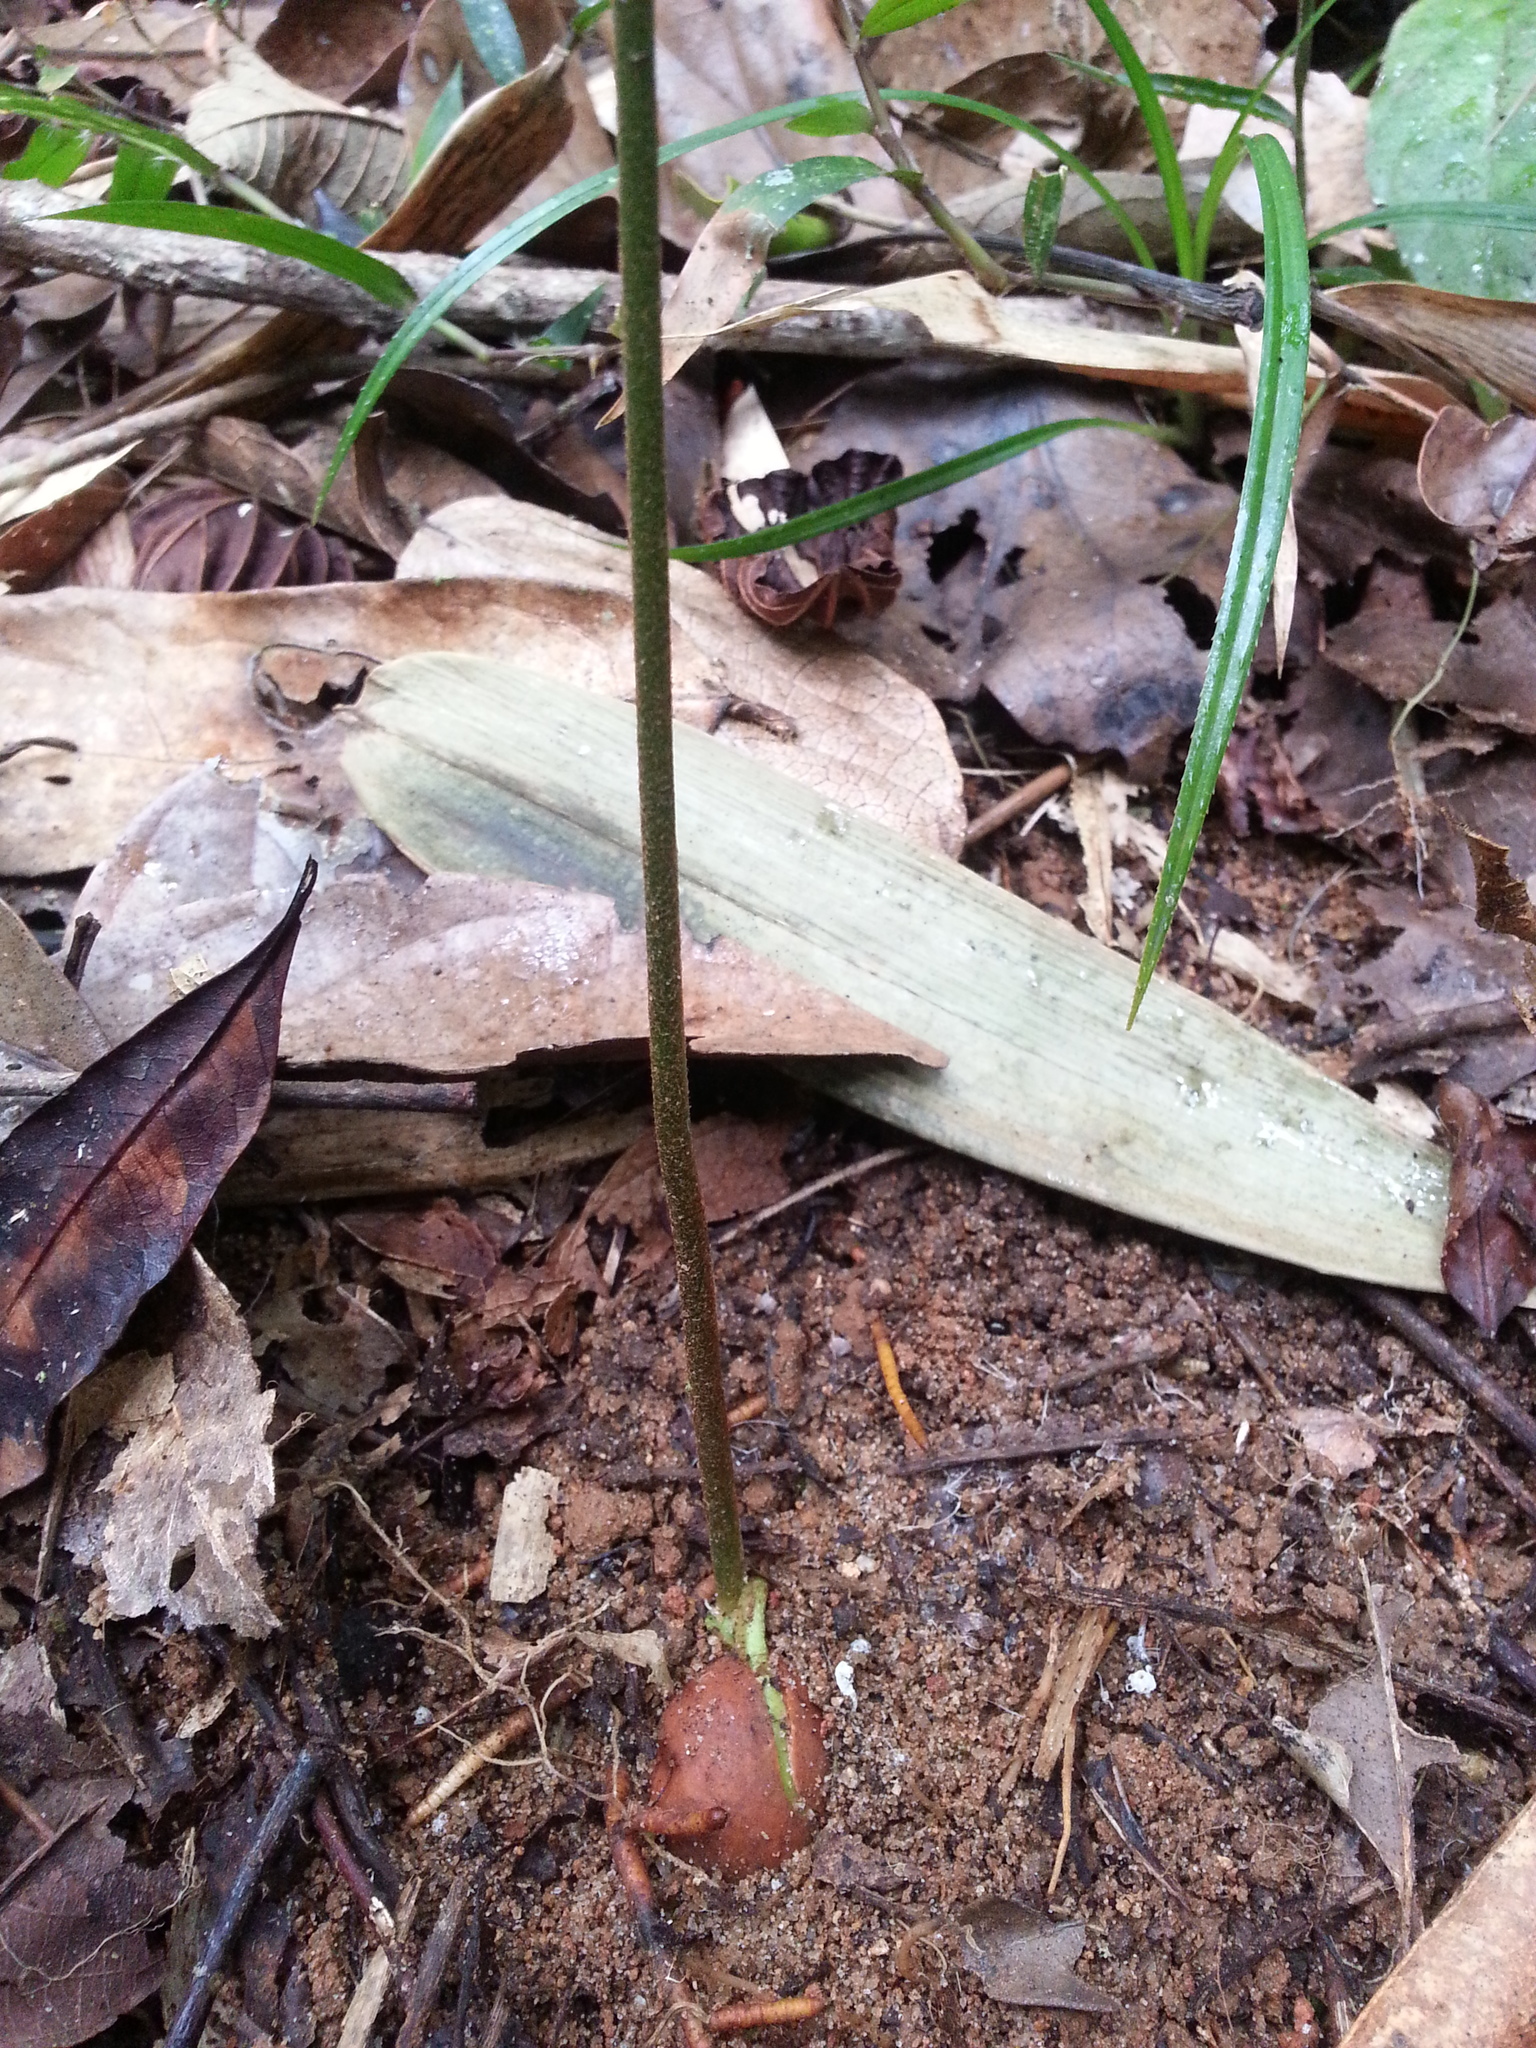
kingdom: Plantae
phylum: Tracheophyta
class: Magnoliopsida
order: Proteales
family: Proteaceae
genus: Dilobeia
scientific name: Dilobeia thouarsii
